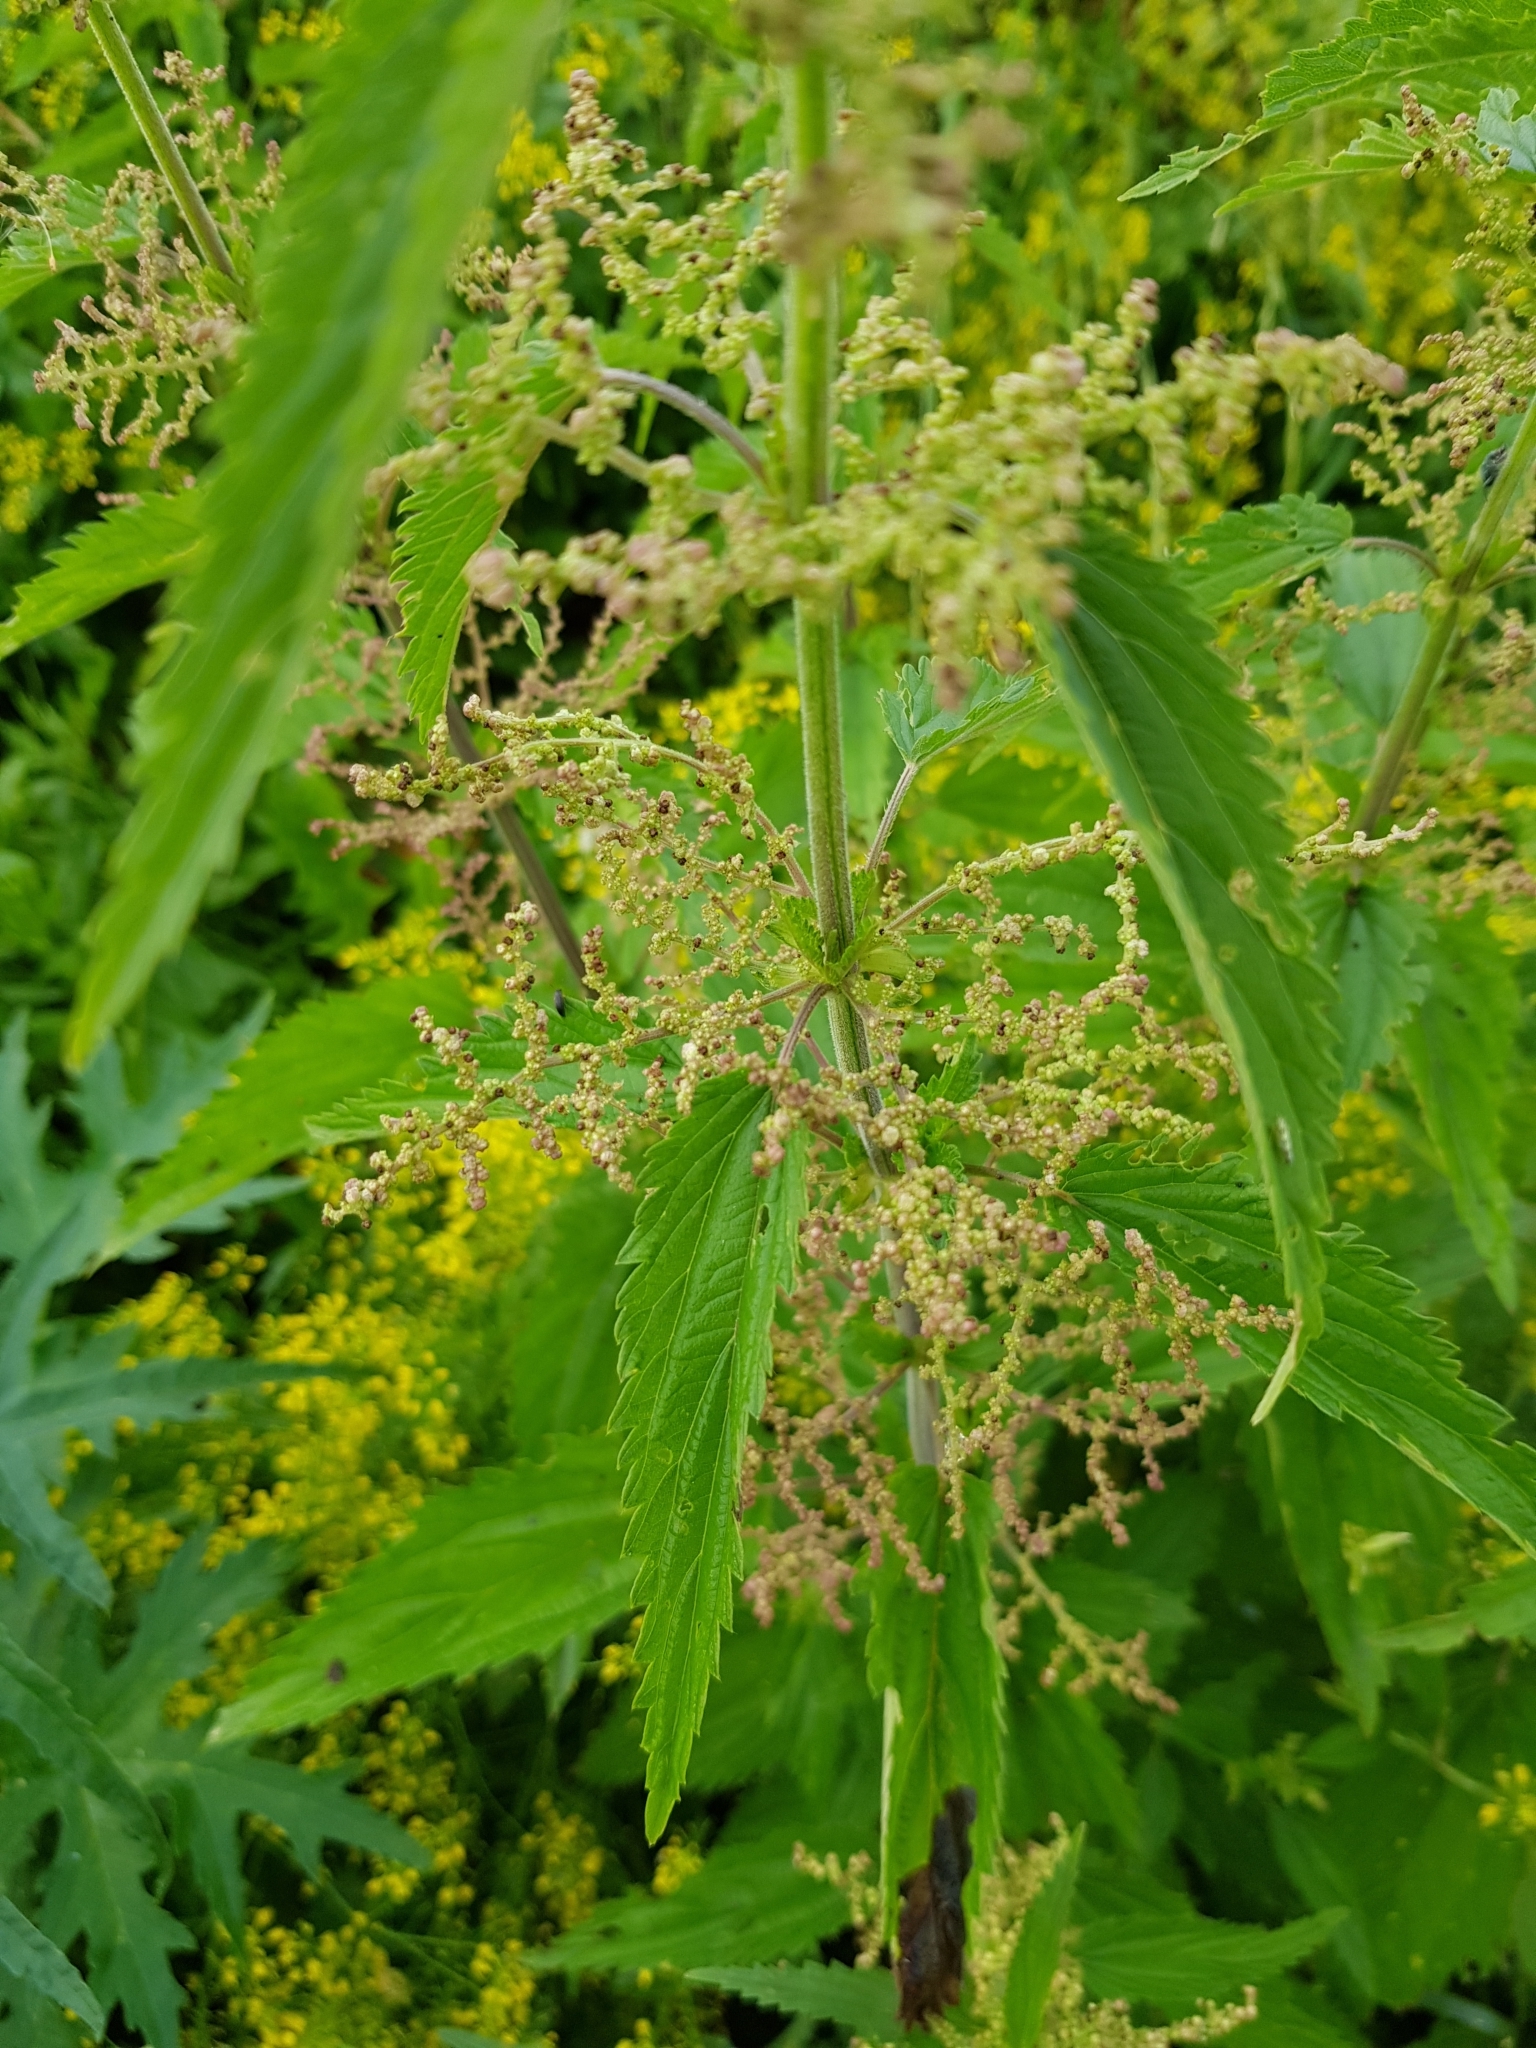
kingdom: Plantae
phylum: Tracheophyta
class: Magnoliopsida
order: Rosales
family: Urticaceae
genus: Urtica
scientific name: Urtica dioica
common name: Common nettle
